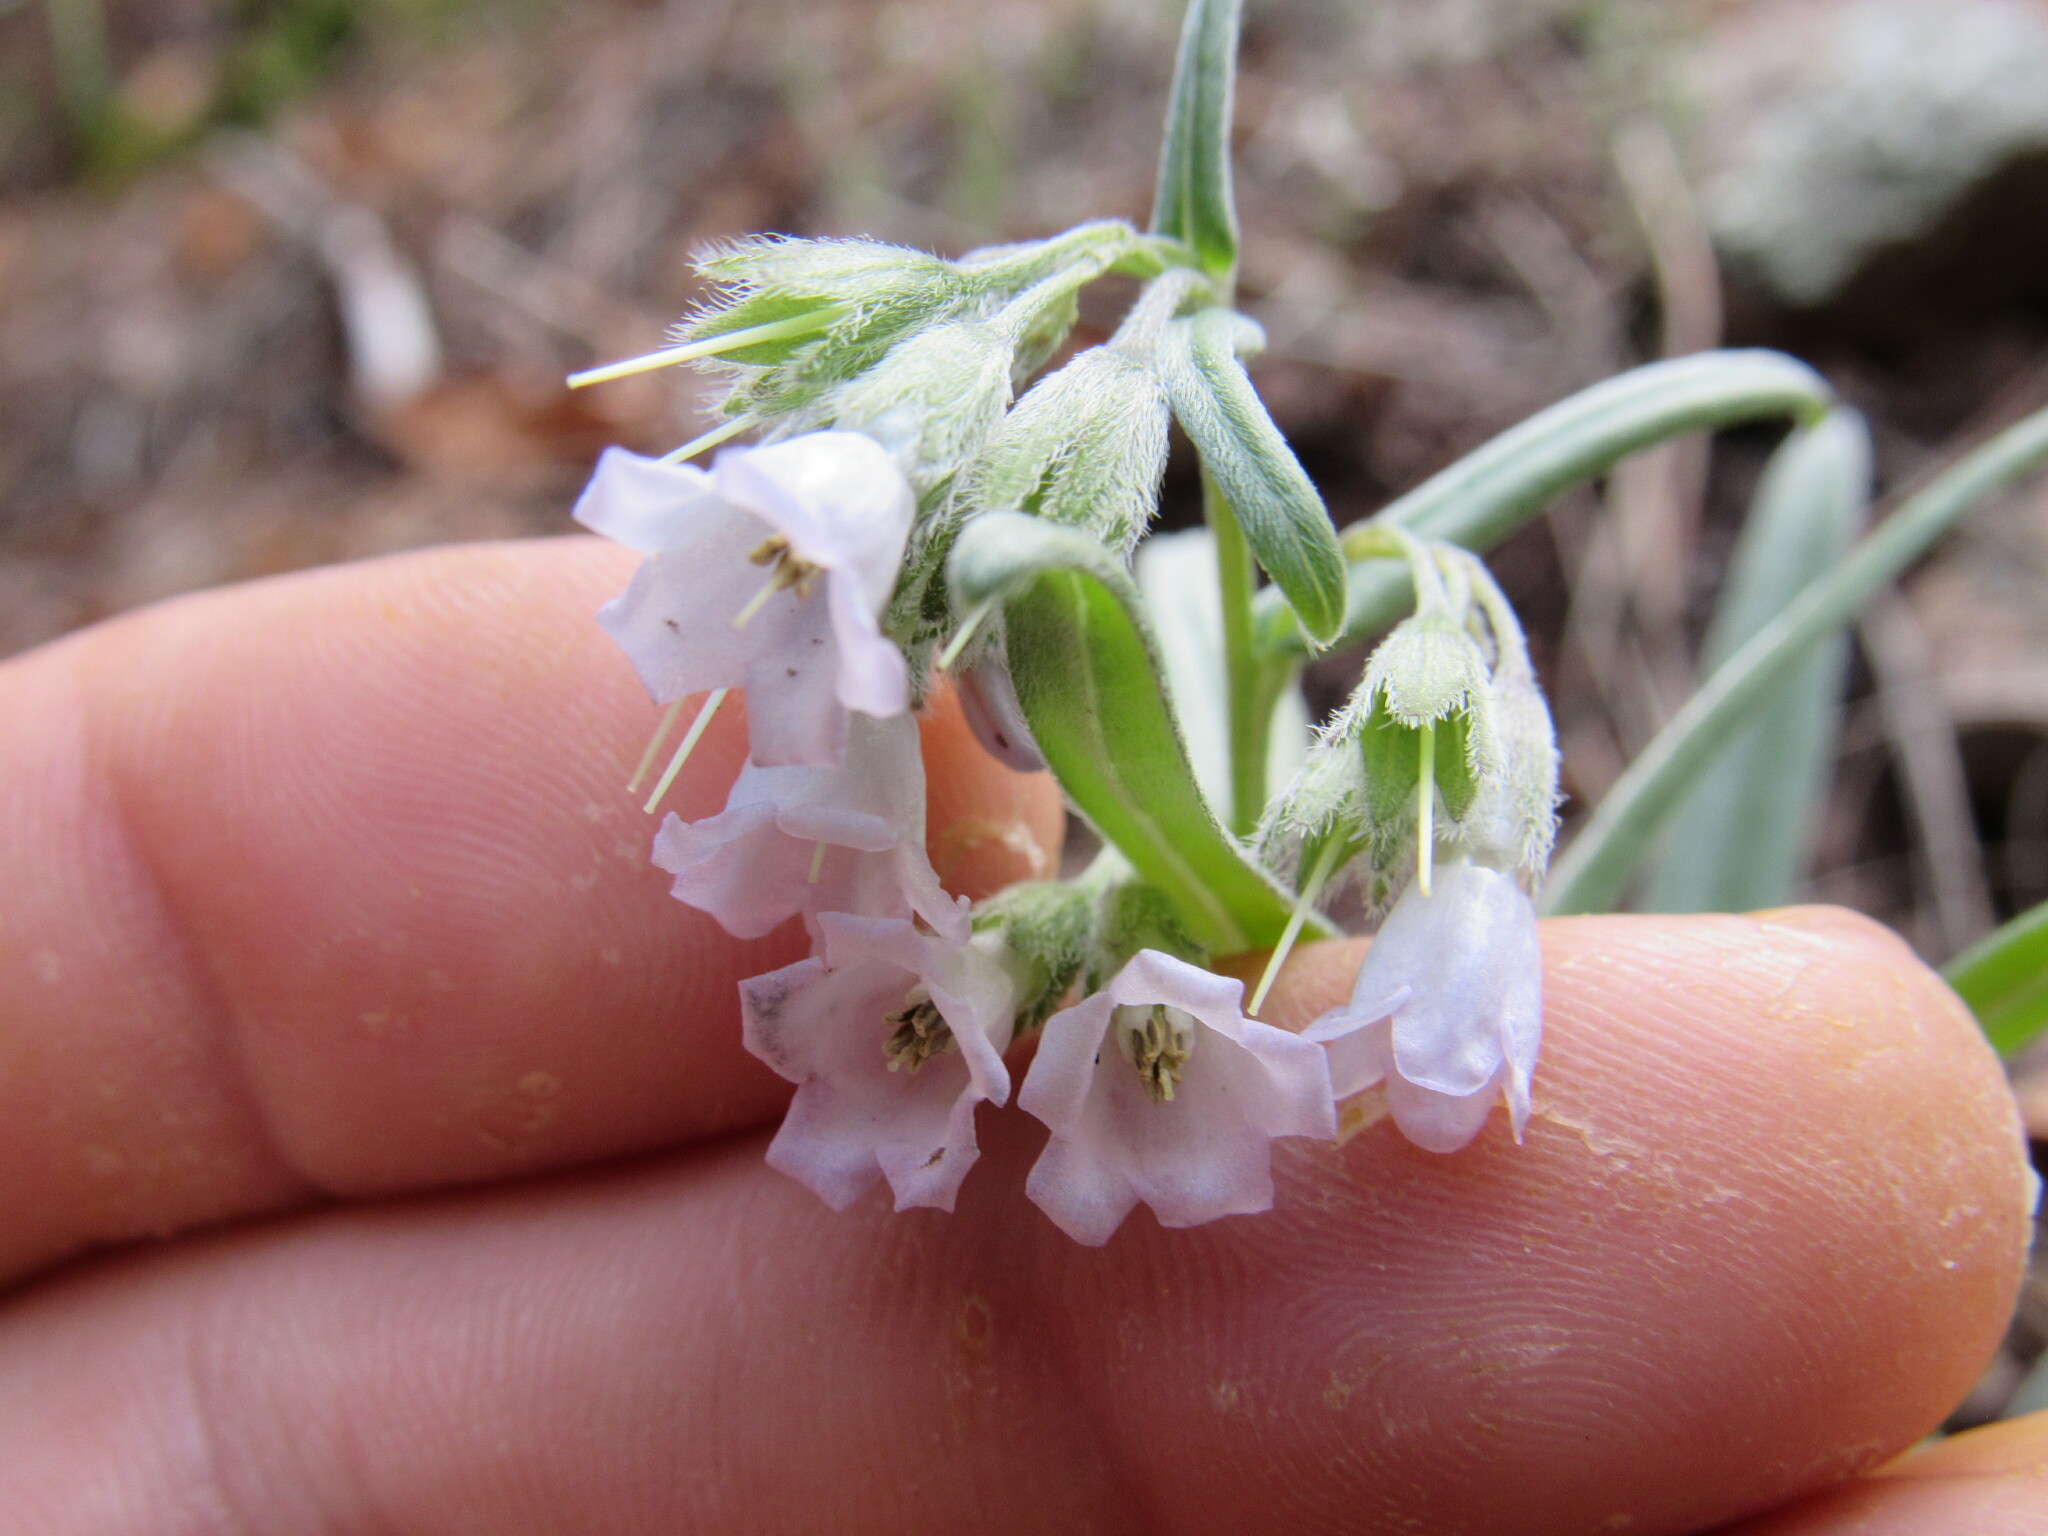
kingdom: Plantae
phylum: Tracheophyta
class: Magnoliopsida
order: Boraginales
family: Boraginaceae
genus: Mertensia
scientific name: Mertensia fendleri
